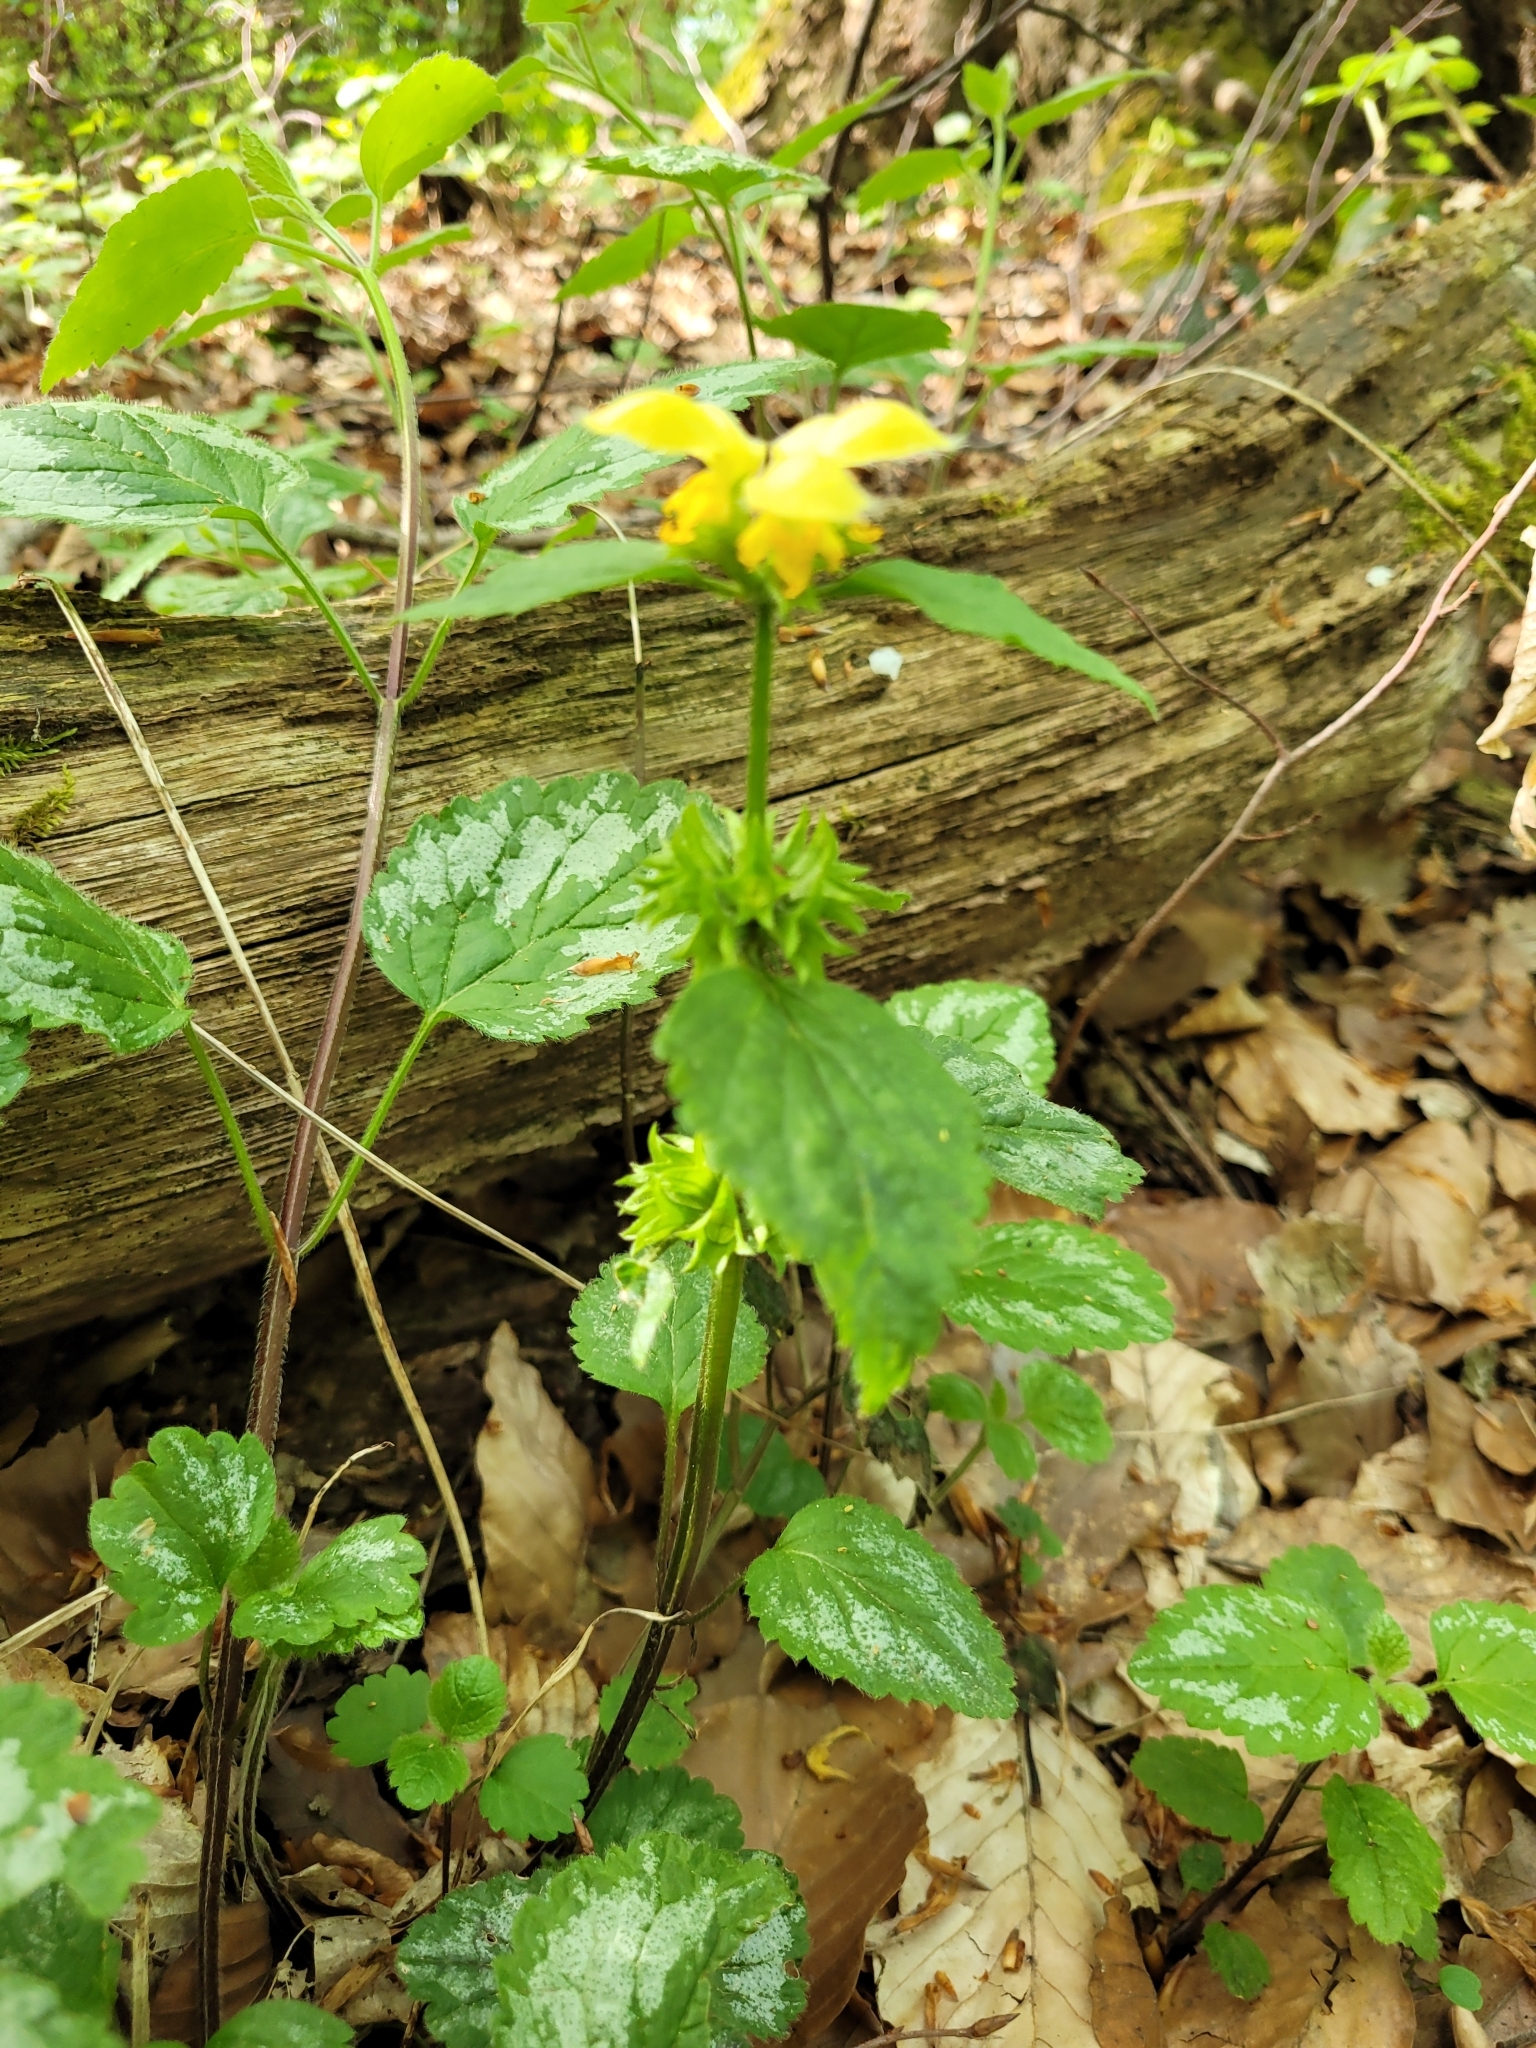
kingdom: Plantae
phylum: Tracheophyta
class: Magnoliopsida
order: Lamiales
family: Lamiaceae
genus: Lamium
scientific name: Lamium galeobdolon
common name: Yellow archangel
